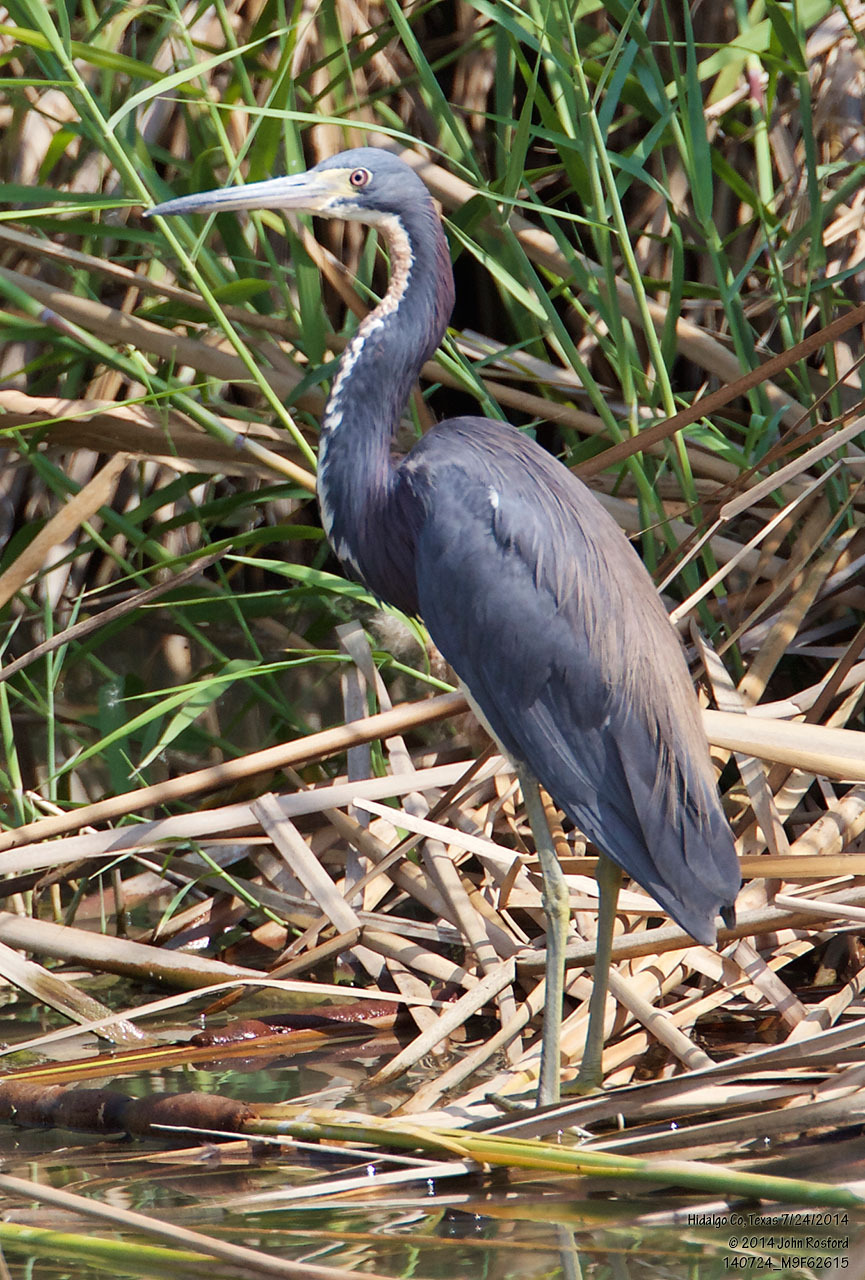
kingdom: Animalia
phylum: Chordata
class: Aves
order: Pelecaniformes
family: Ardeidae
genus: Egretta
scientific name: Egretta tricolor
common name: Tricolored heron
